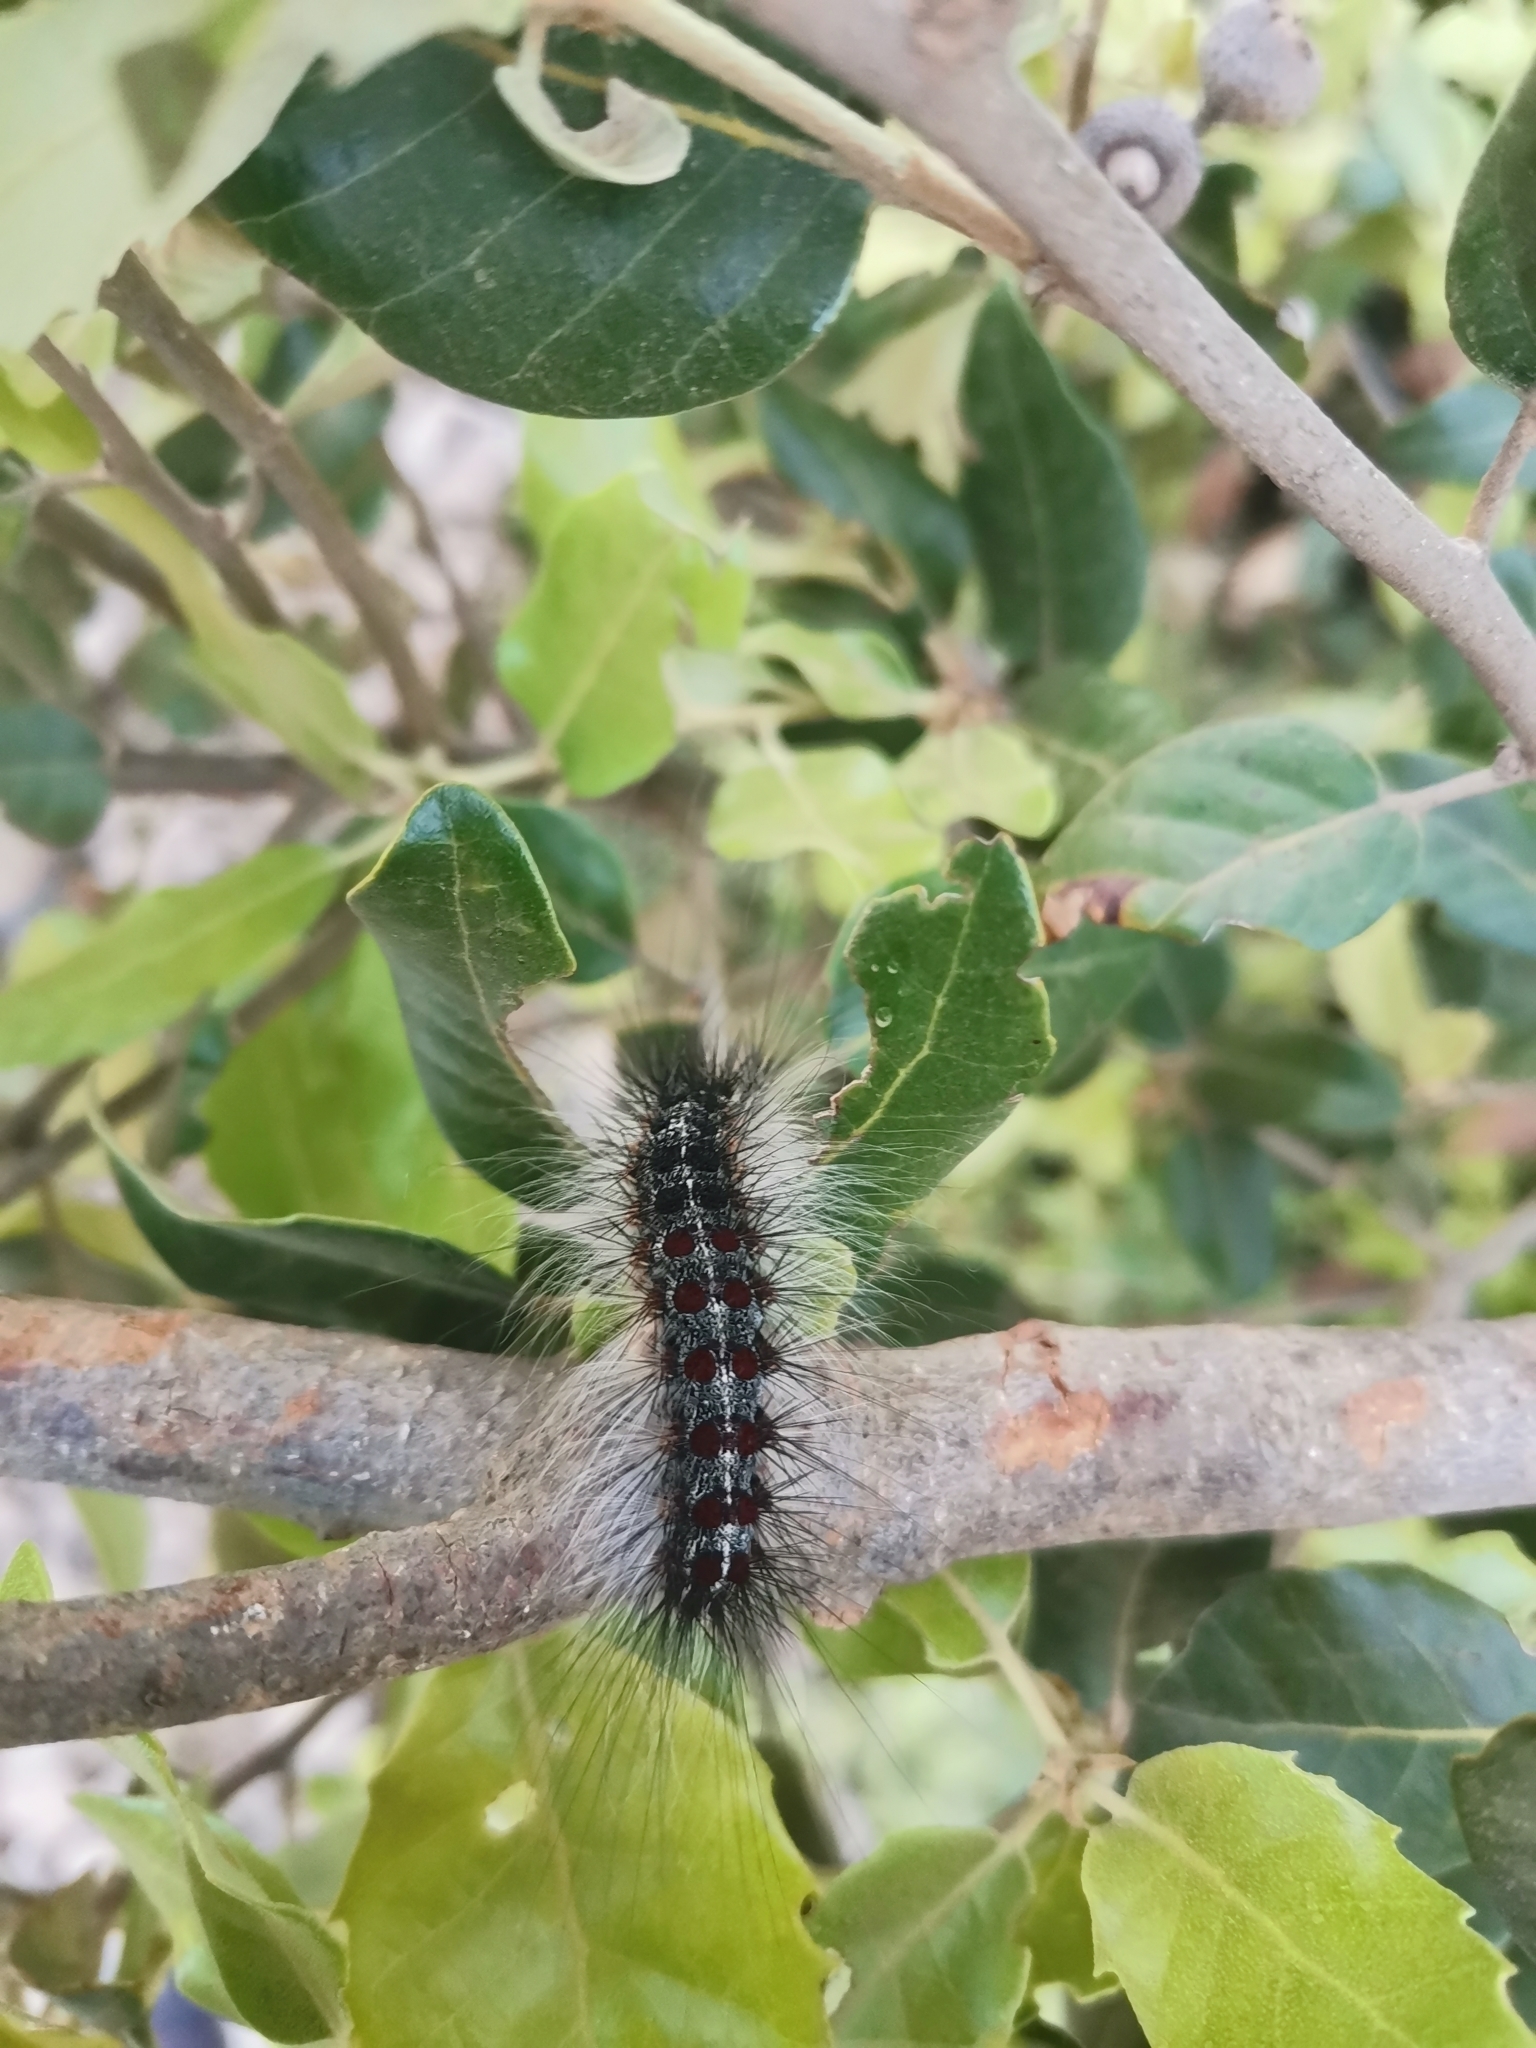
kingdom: Animalia
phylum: Arthropoda
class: Insecta
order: Lepidoptera
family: Erebidae
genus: Lymantria
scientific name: Lymantria dispar
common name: Gypsy moth
